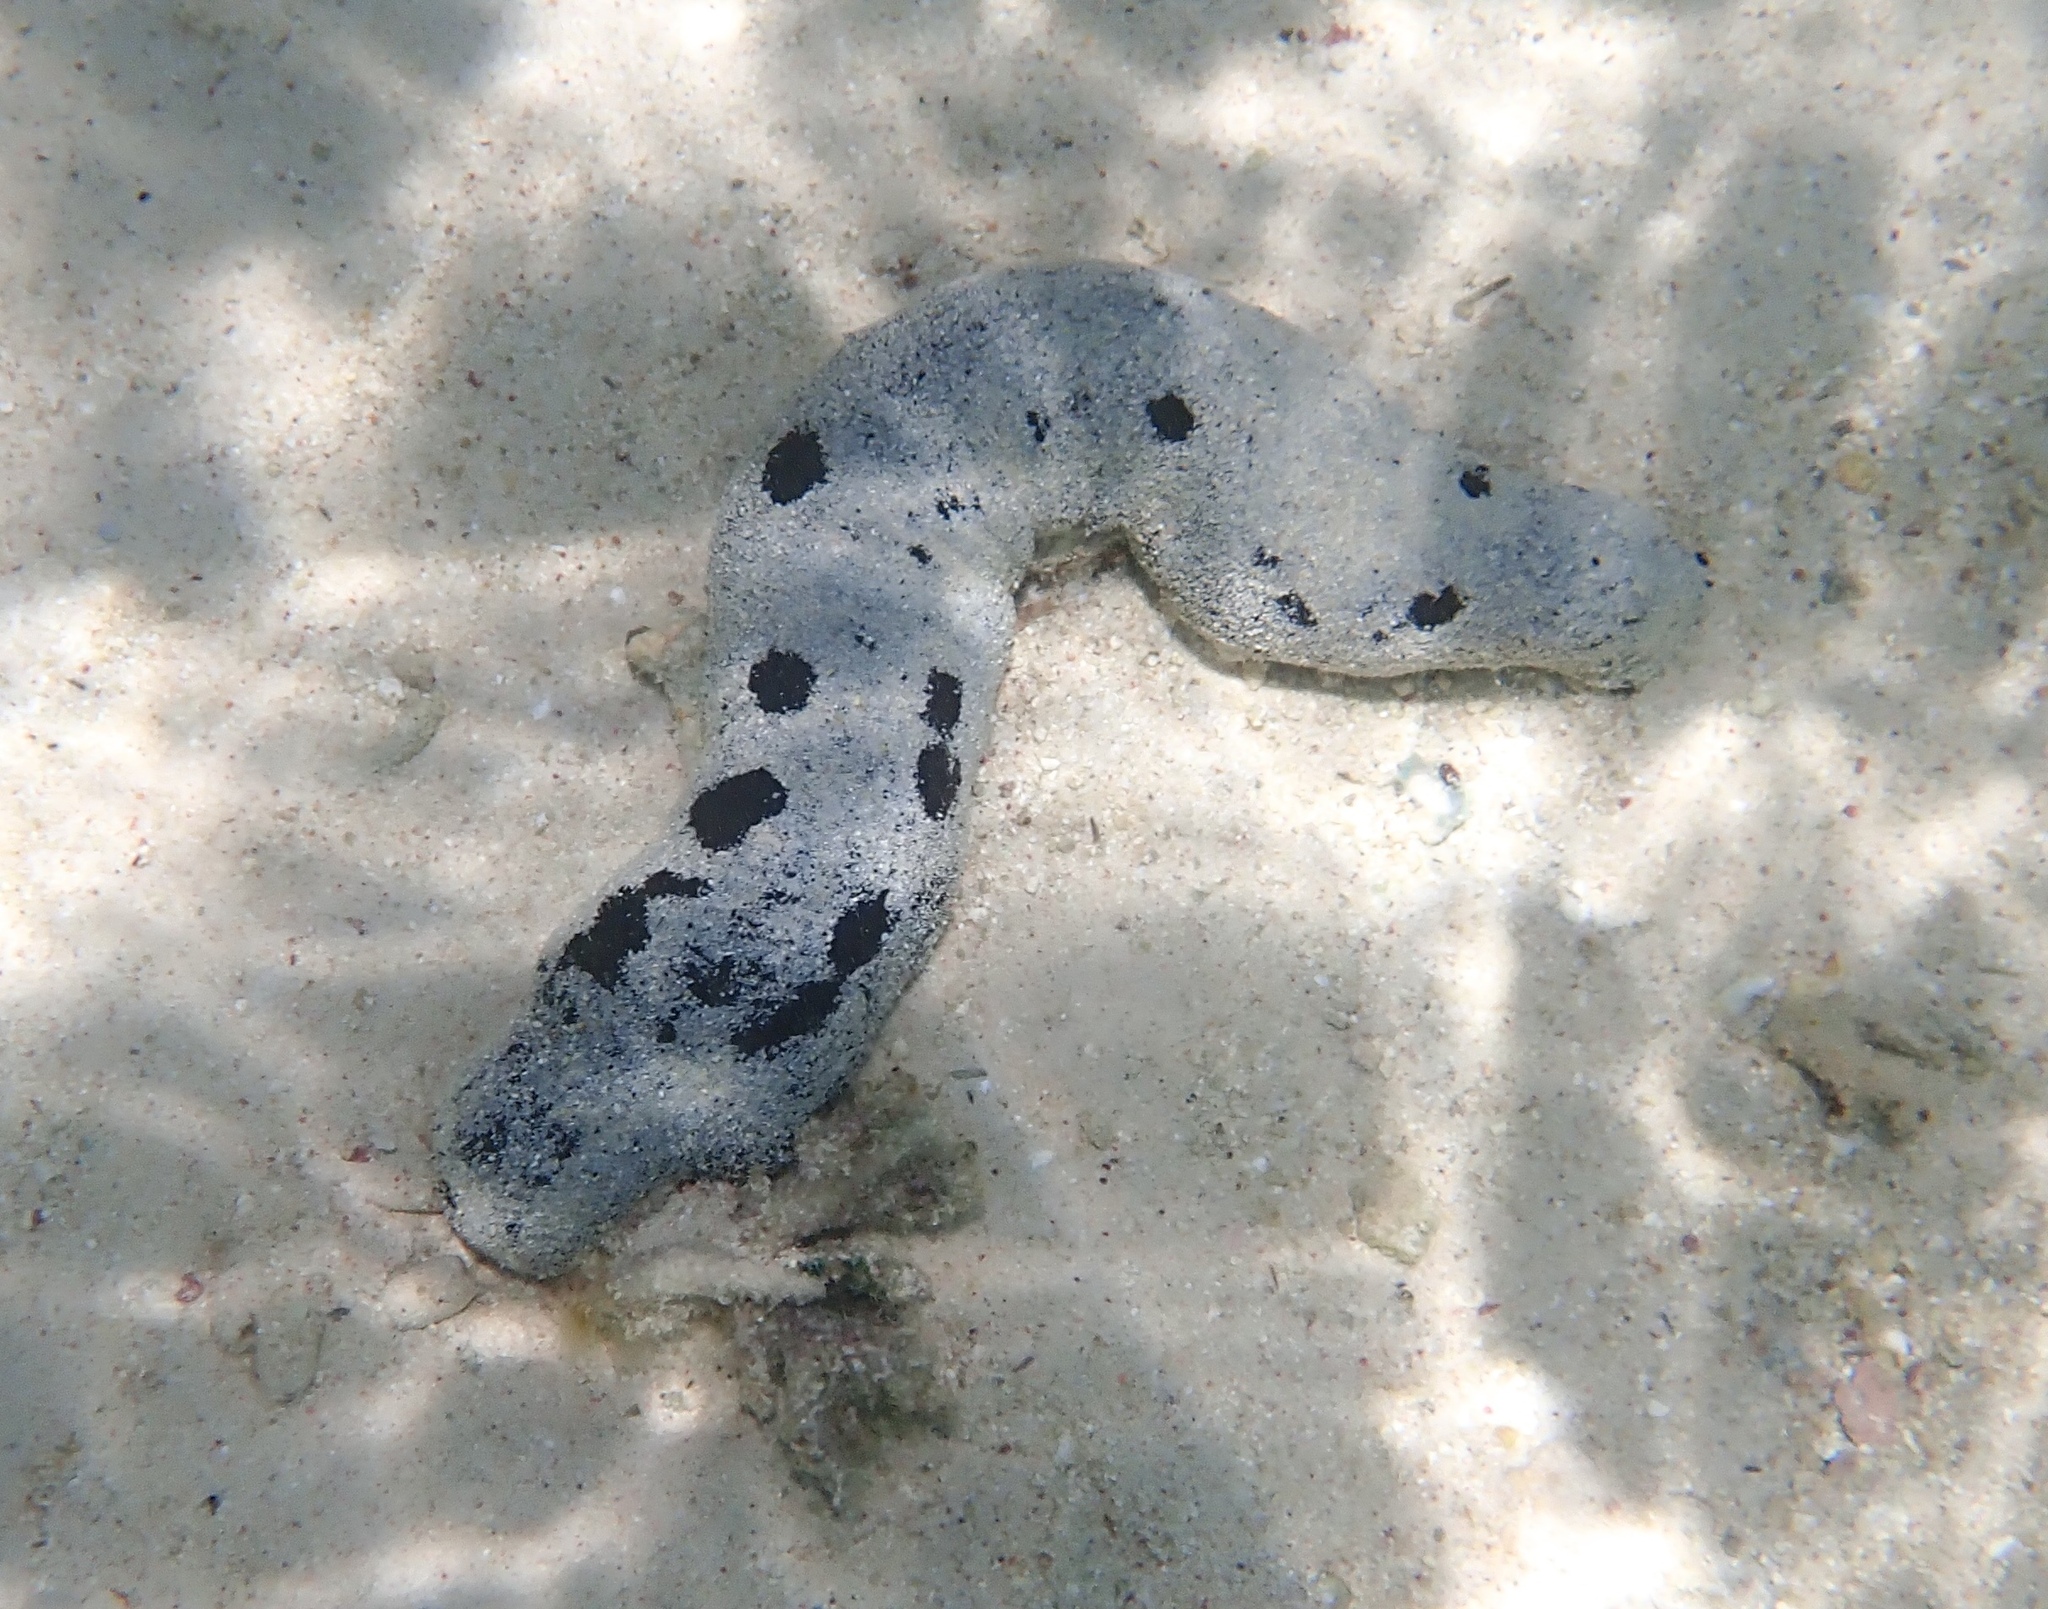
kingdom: Animalia
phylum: Echinodermata
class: Holothuroidea
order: Holothuriida
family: Holothuriidae
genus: Holothuria
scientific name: Holothuria atra
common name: Lollyfish
